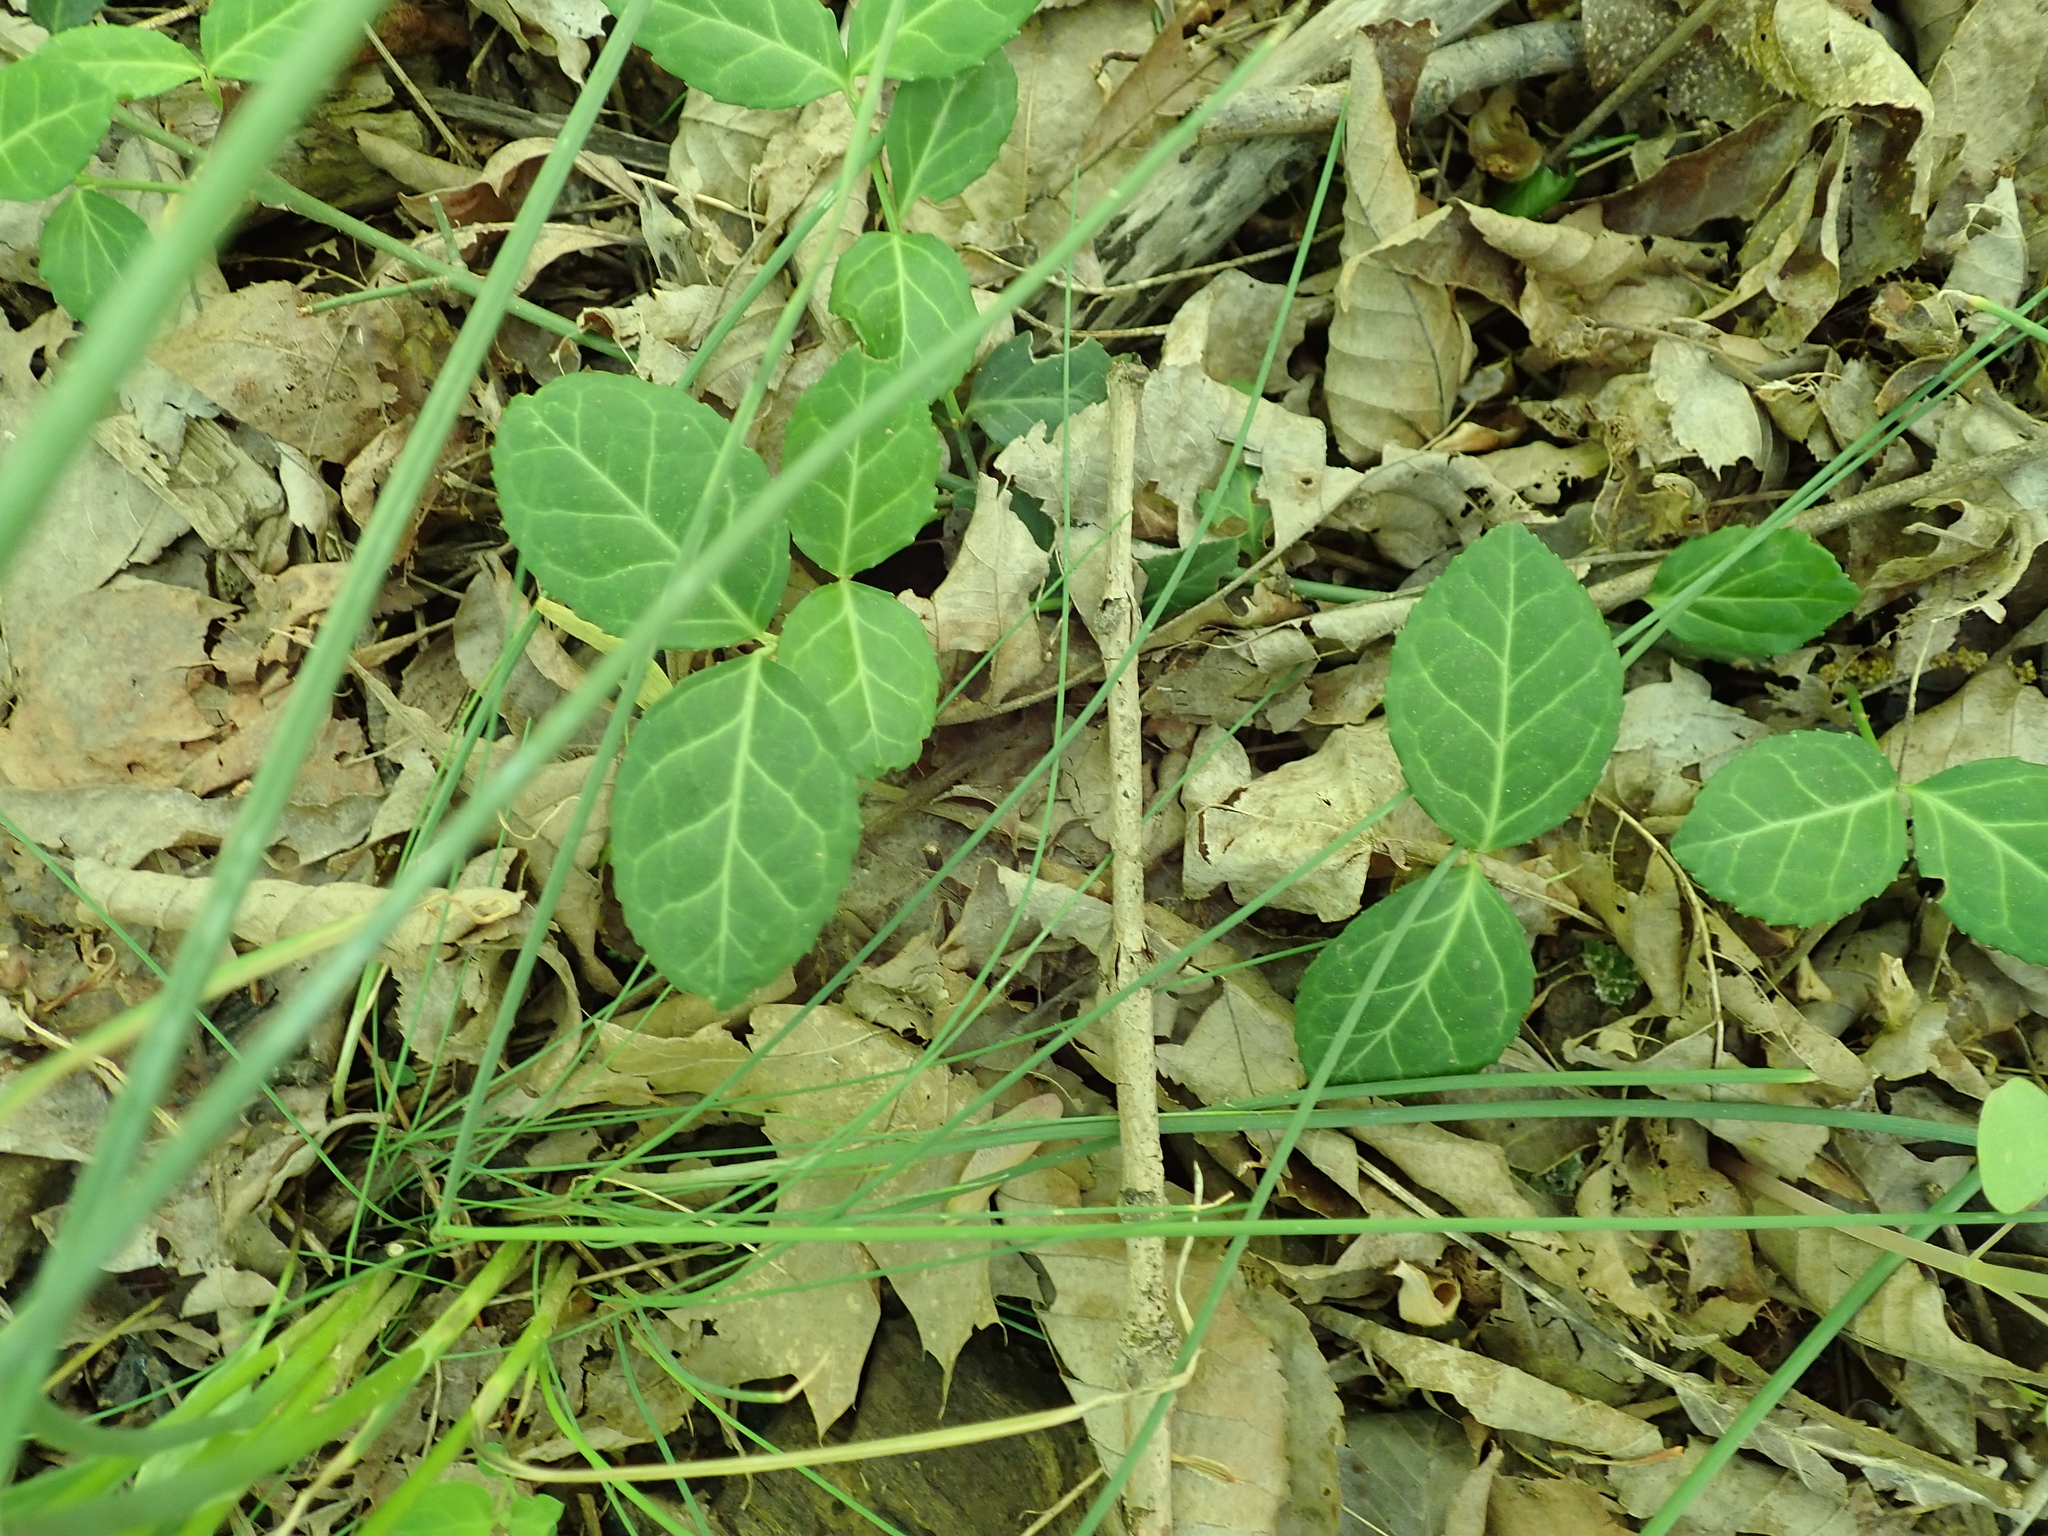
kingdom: Plantae
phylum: Tracheophyta
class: Magnoliopsida
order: Celastrales
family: Celastraceae
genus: Euonymus
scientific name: Euonymus fortunei
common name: Climbing euonymus
